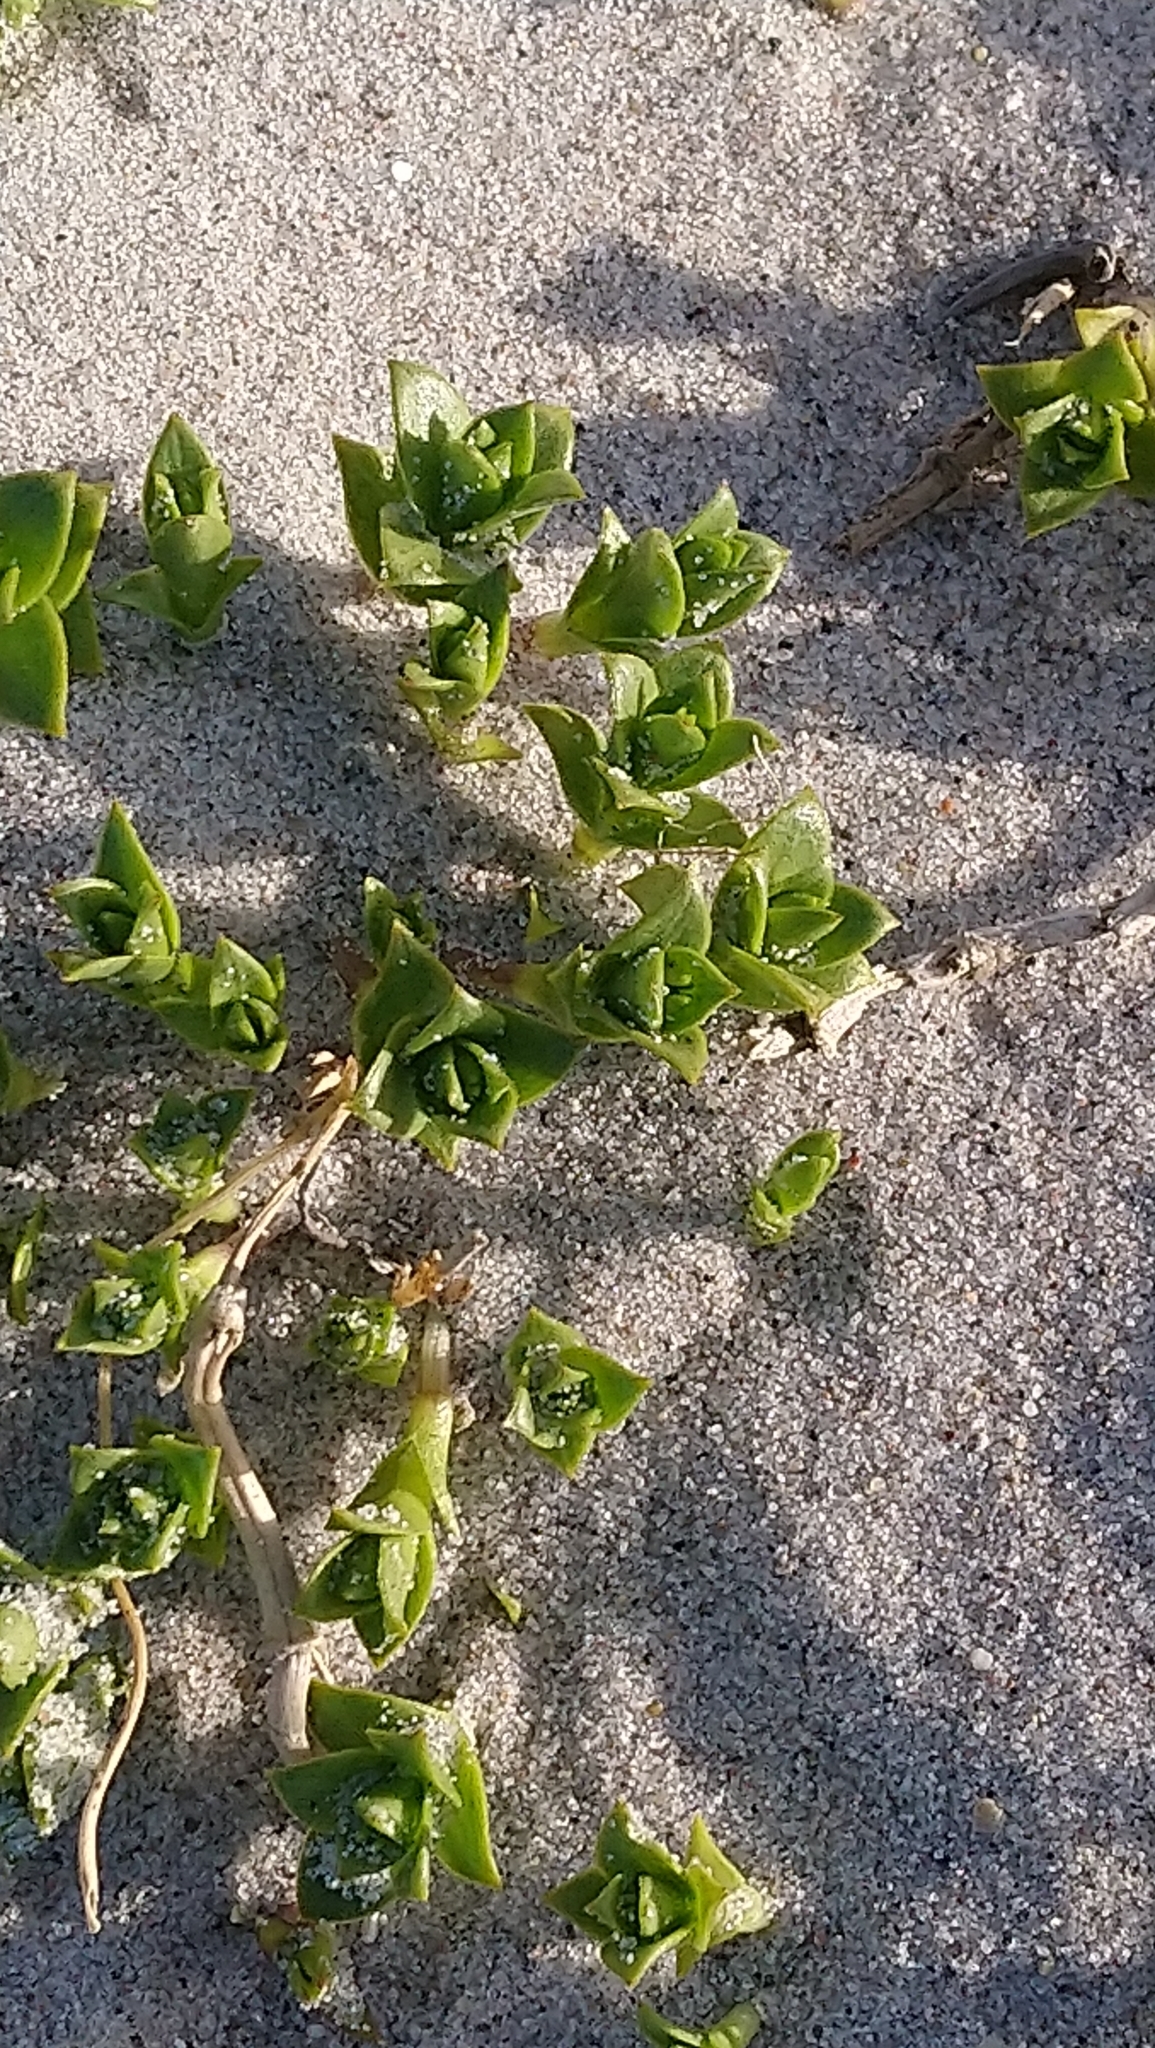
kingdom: Plantae
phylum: Tracheophyta
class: Magnoliopsida
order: Caryophyllales
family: Caryophyllaceae
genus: Honckenya
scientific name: Honckenya peploides
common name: Sea sandwort
